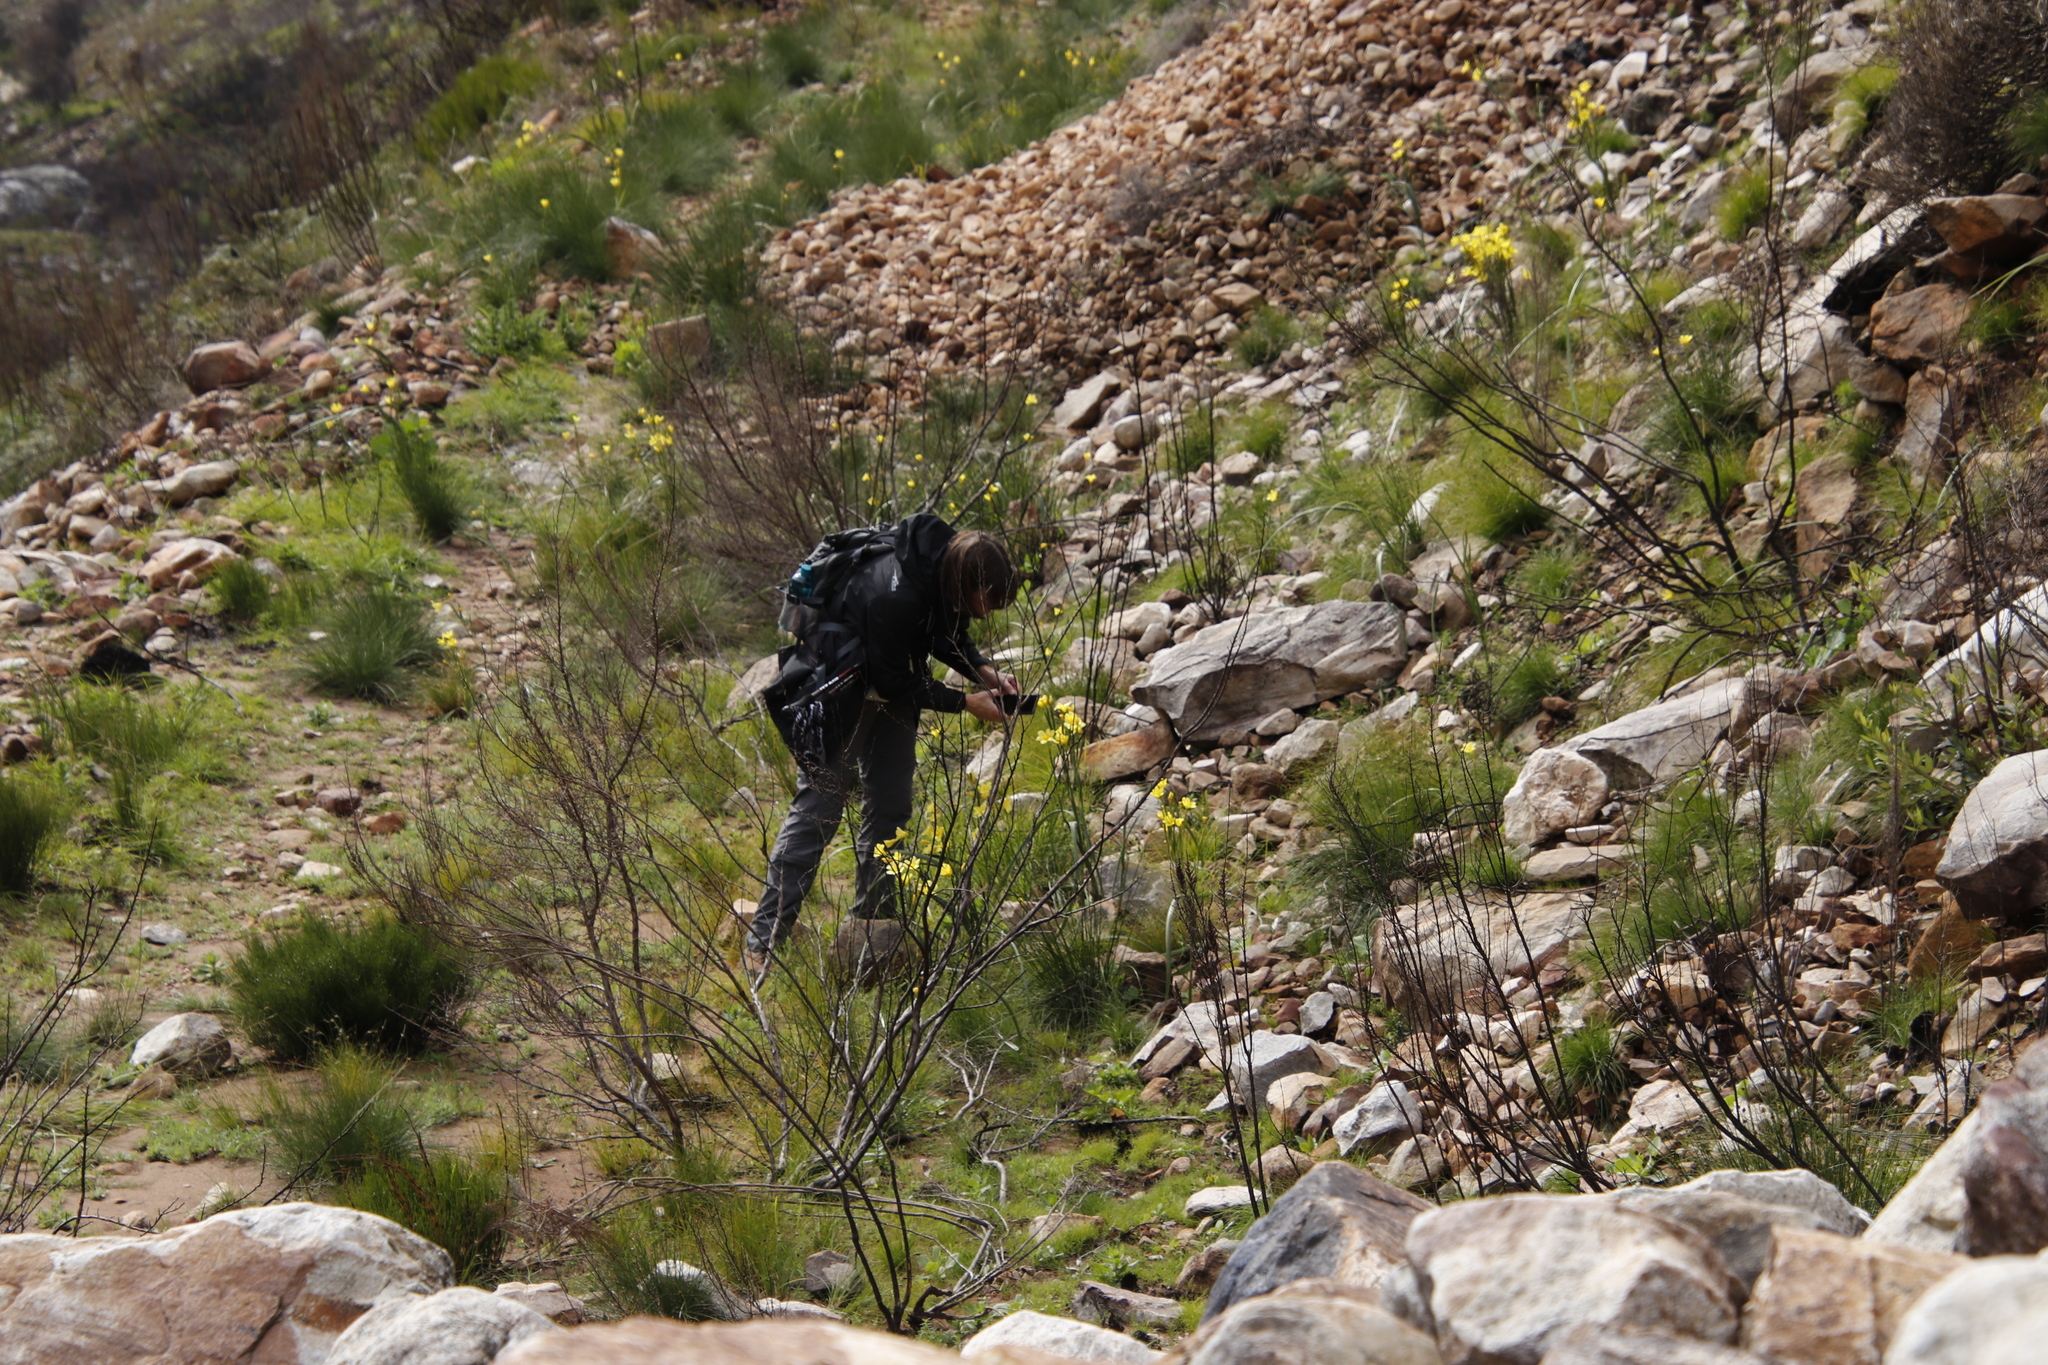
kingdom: Plantae
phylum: Tracheophyta
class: Liliopsida
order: Asparagales
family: Iridaceae
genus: Moraea
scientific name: Moraea ochroleuca
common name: Red tulp
